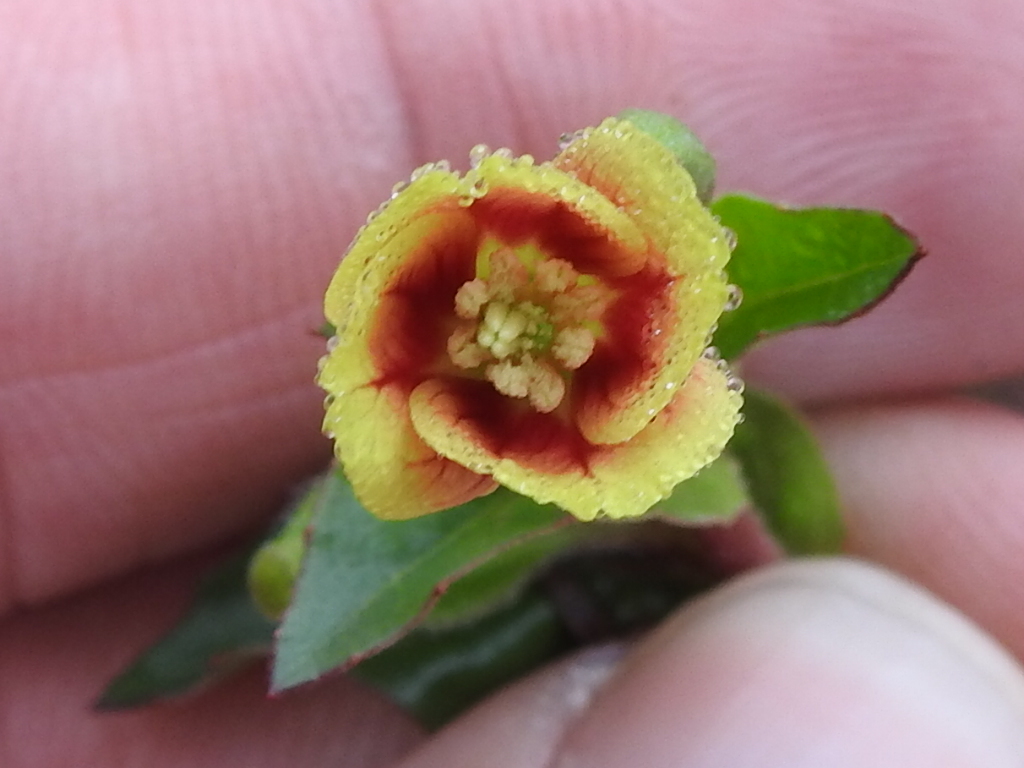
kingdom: Plantae
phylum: Tracheophyta
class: Magnoliopsida
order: Myrtales
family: Onagraceae
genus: Oenothera
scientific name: Oenothera epilobiifolia
